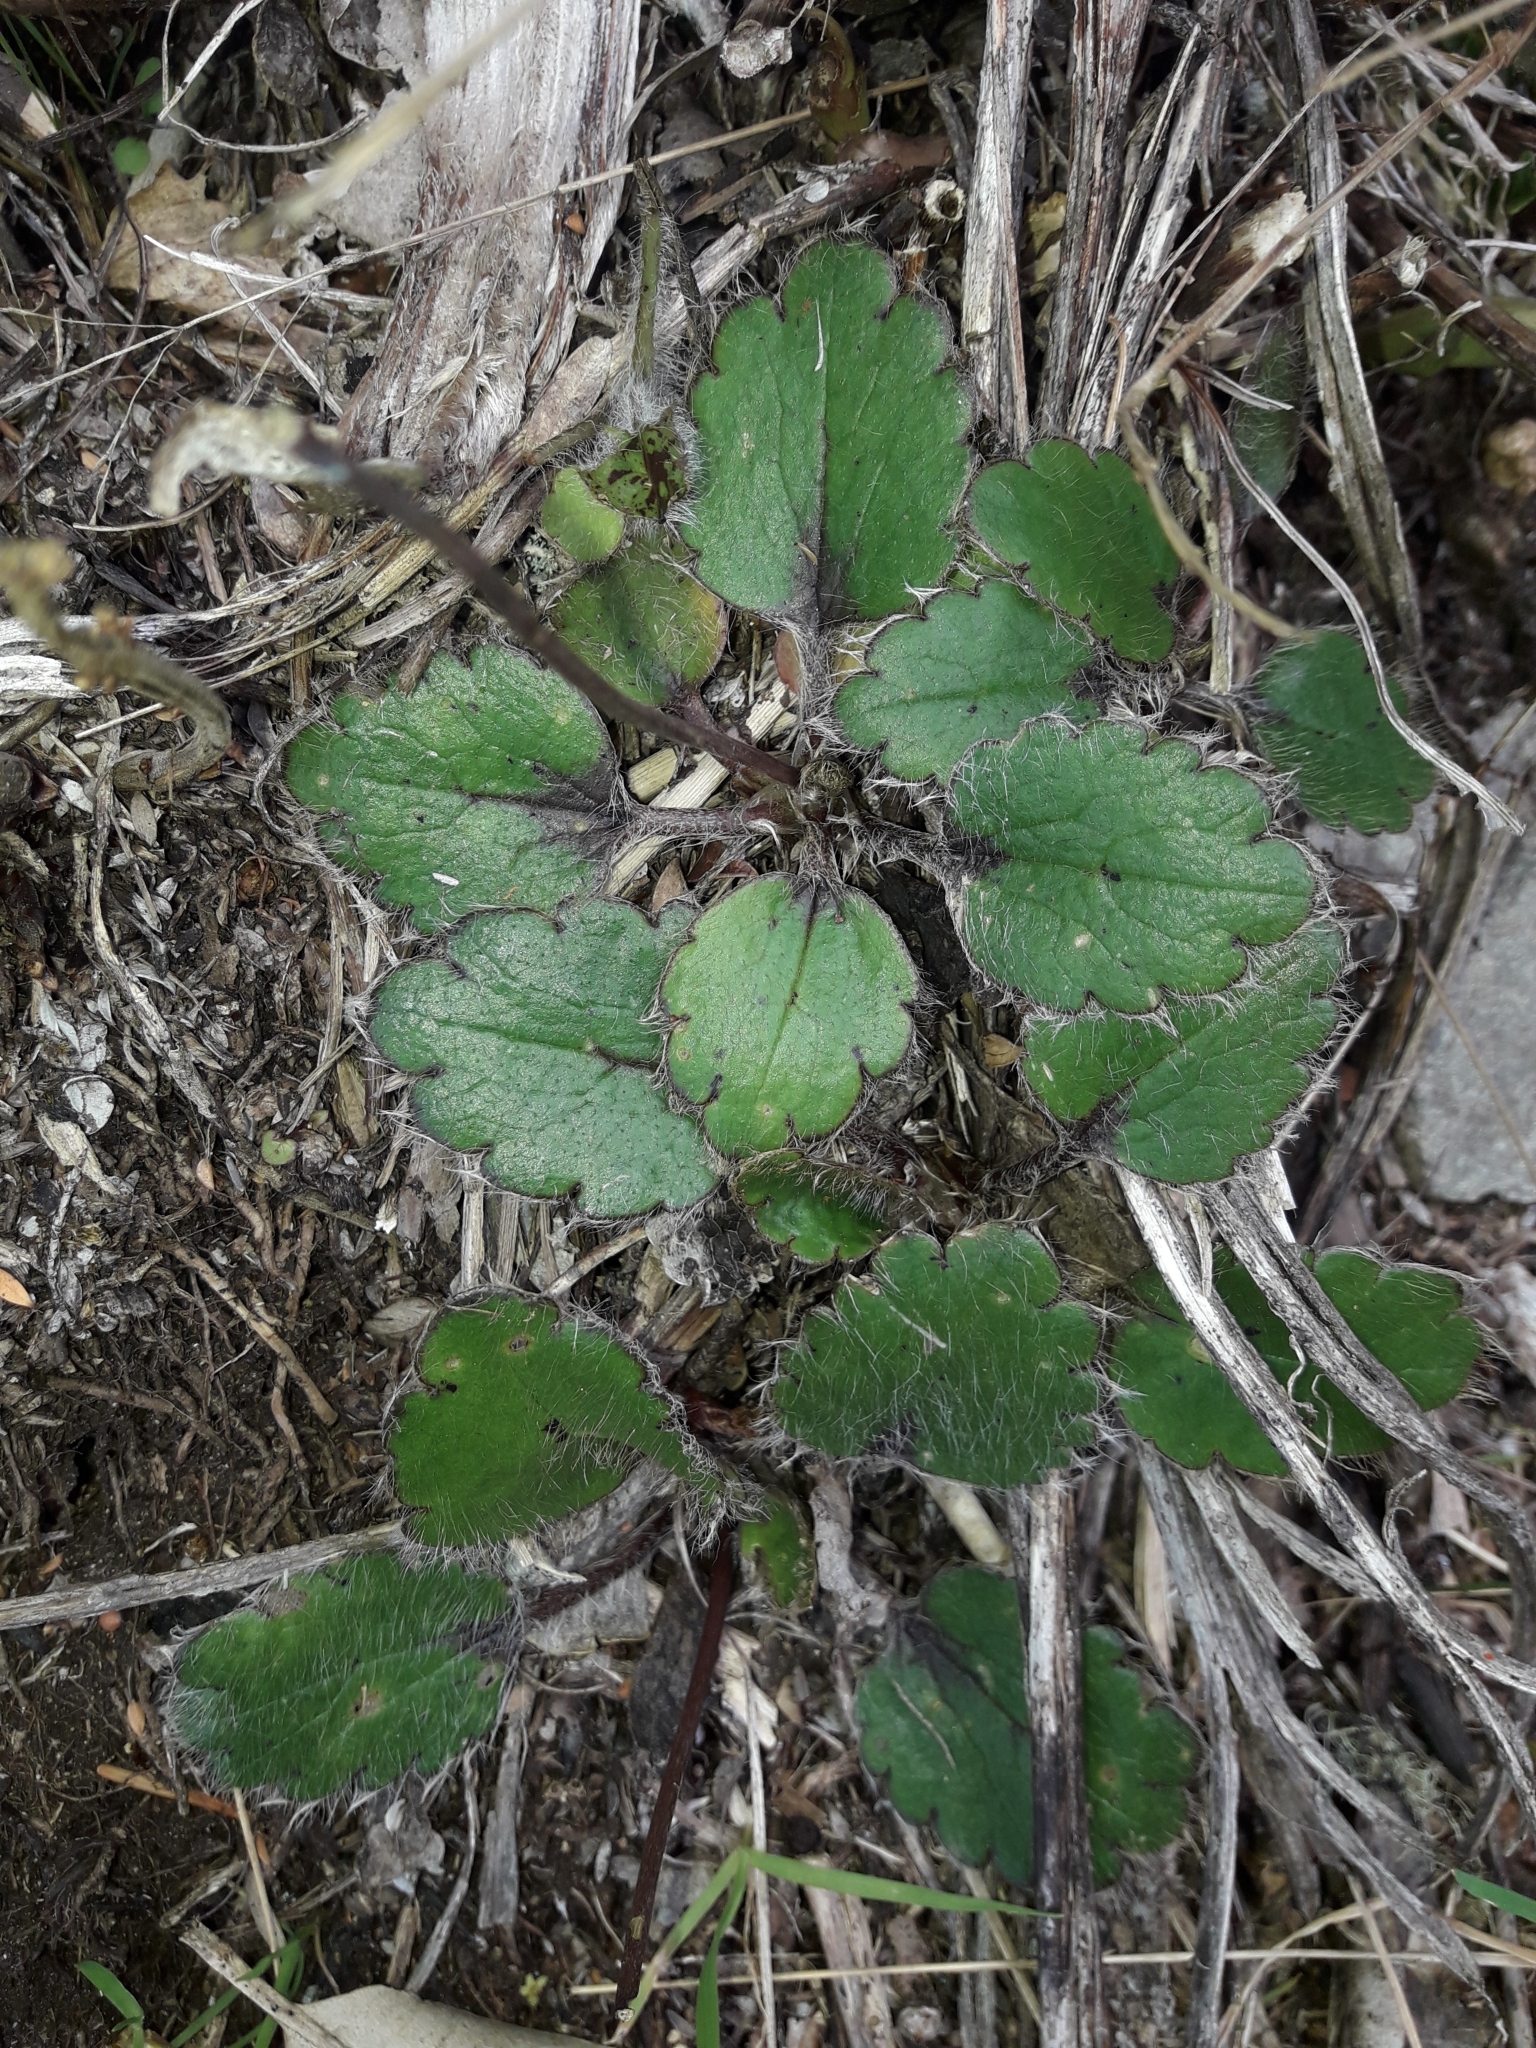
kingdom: Plantae
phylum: Tracheophyta
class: Magnoliopsida
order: Ranunculales
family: Ranunculaceae
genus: Ranunculus
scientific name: Ranunculus insignis
